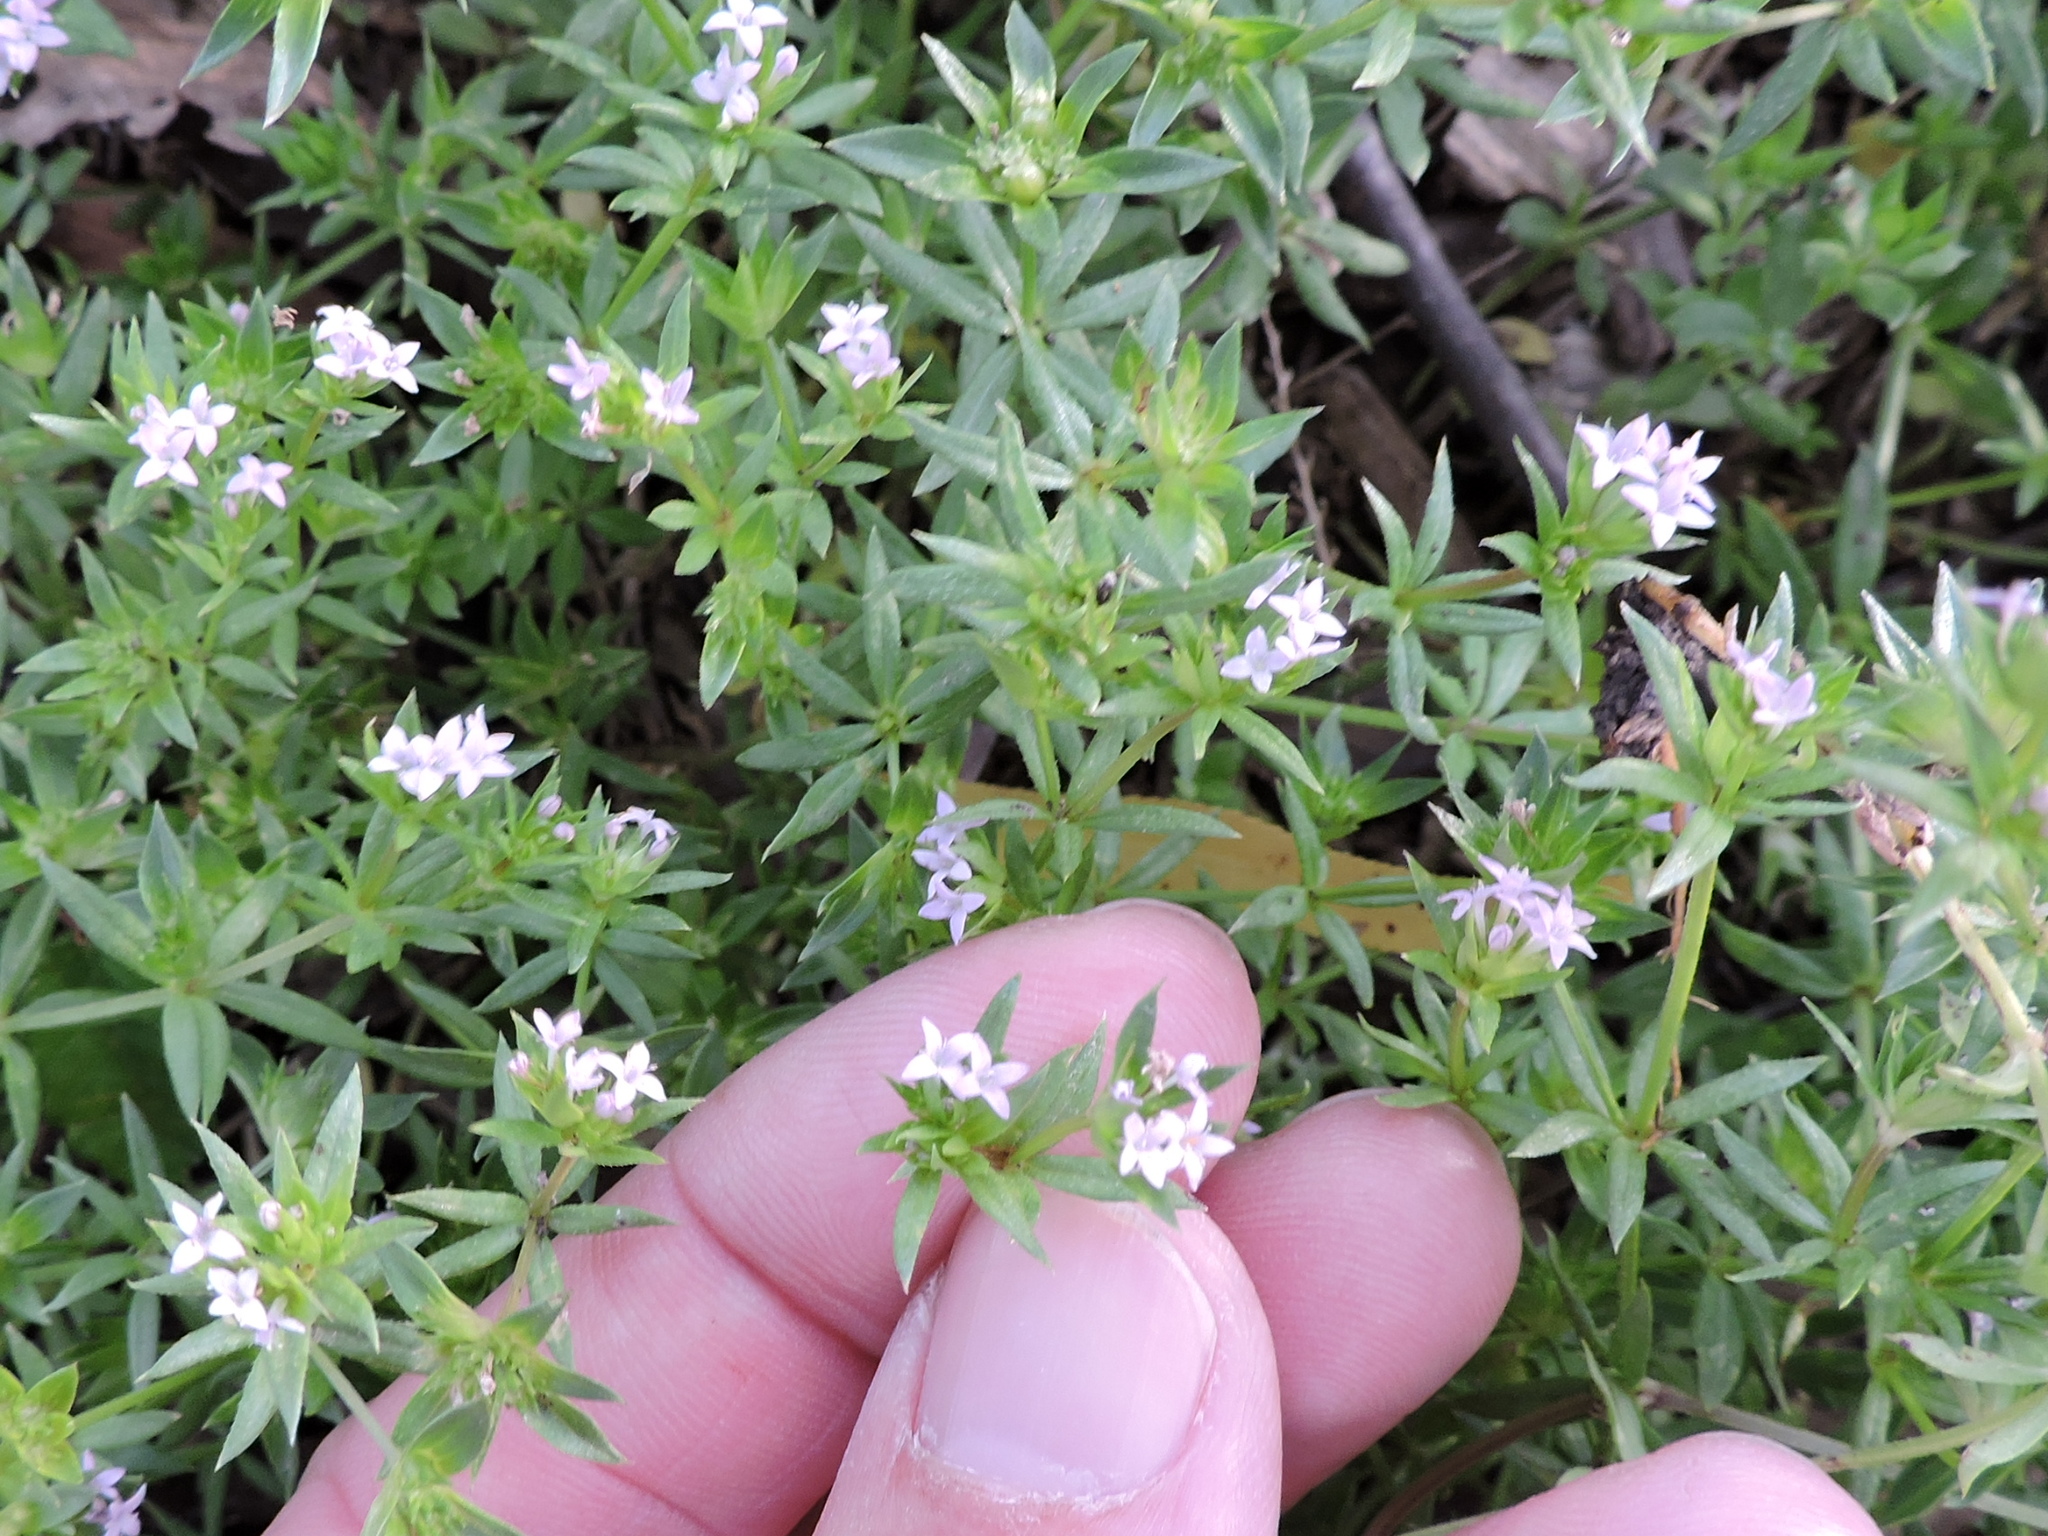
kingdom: Plantae
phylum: Tracheophyta
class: Magnoliopsida
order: Gentianales
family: Rubiaceae
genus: Sherardia
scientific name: Sherardia arvensis
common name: Field madder
